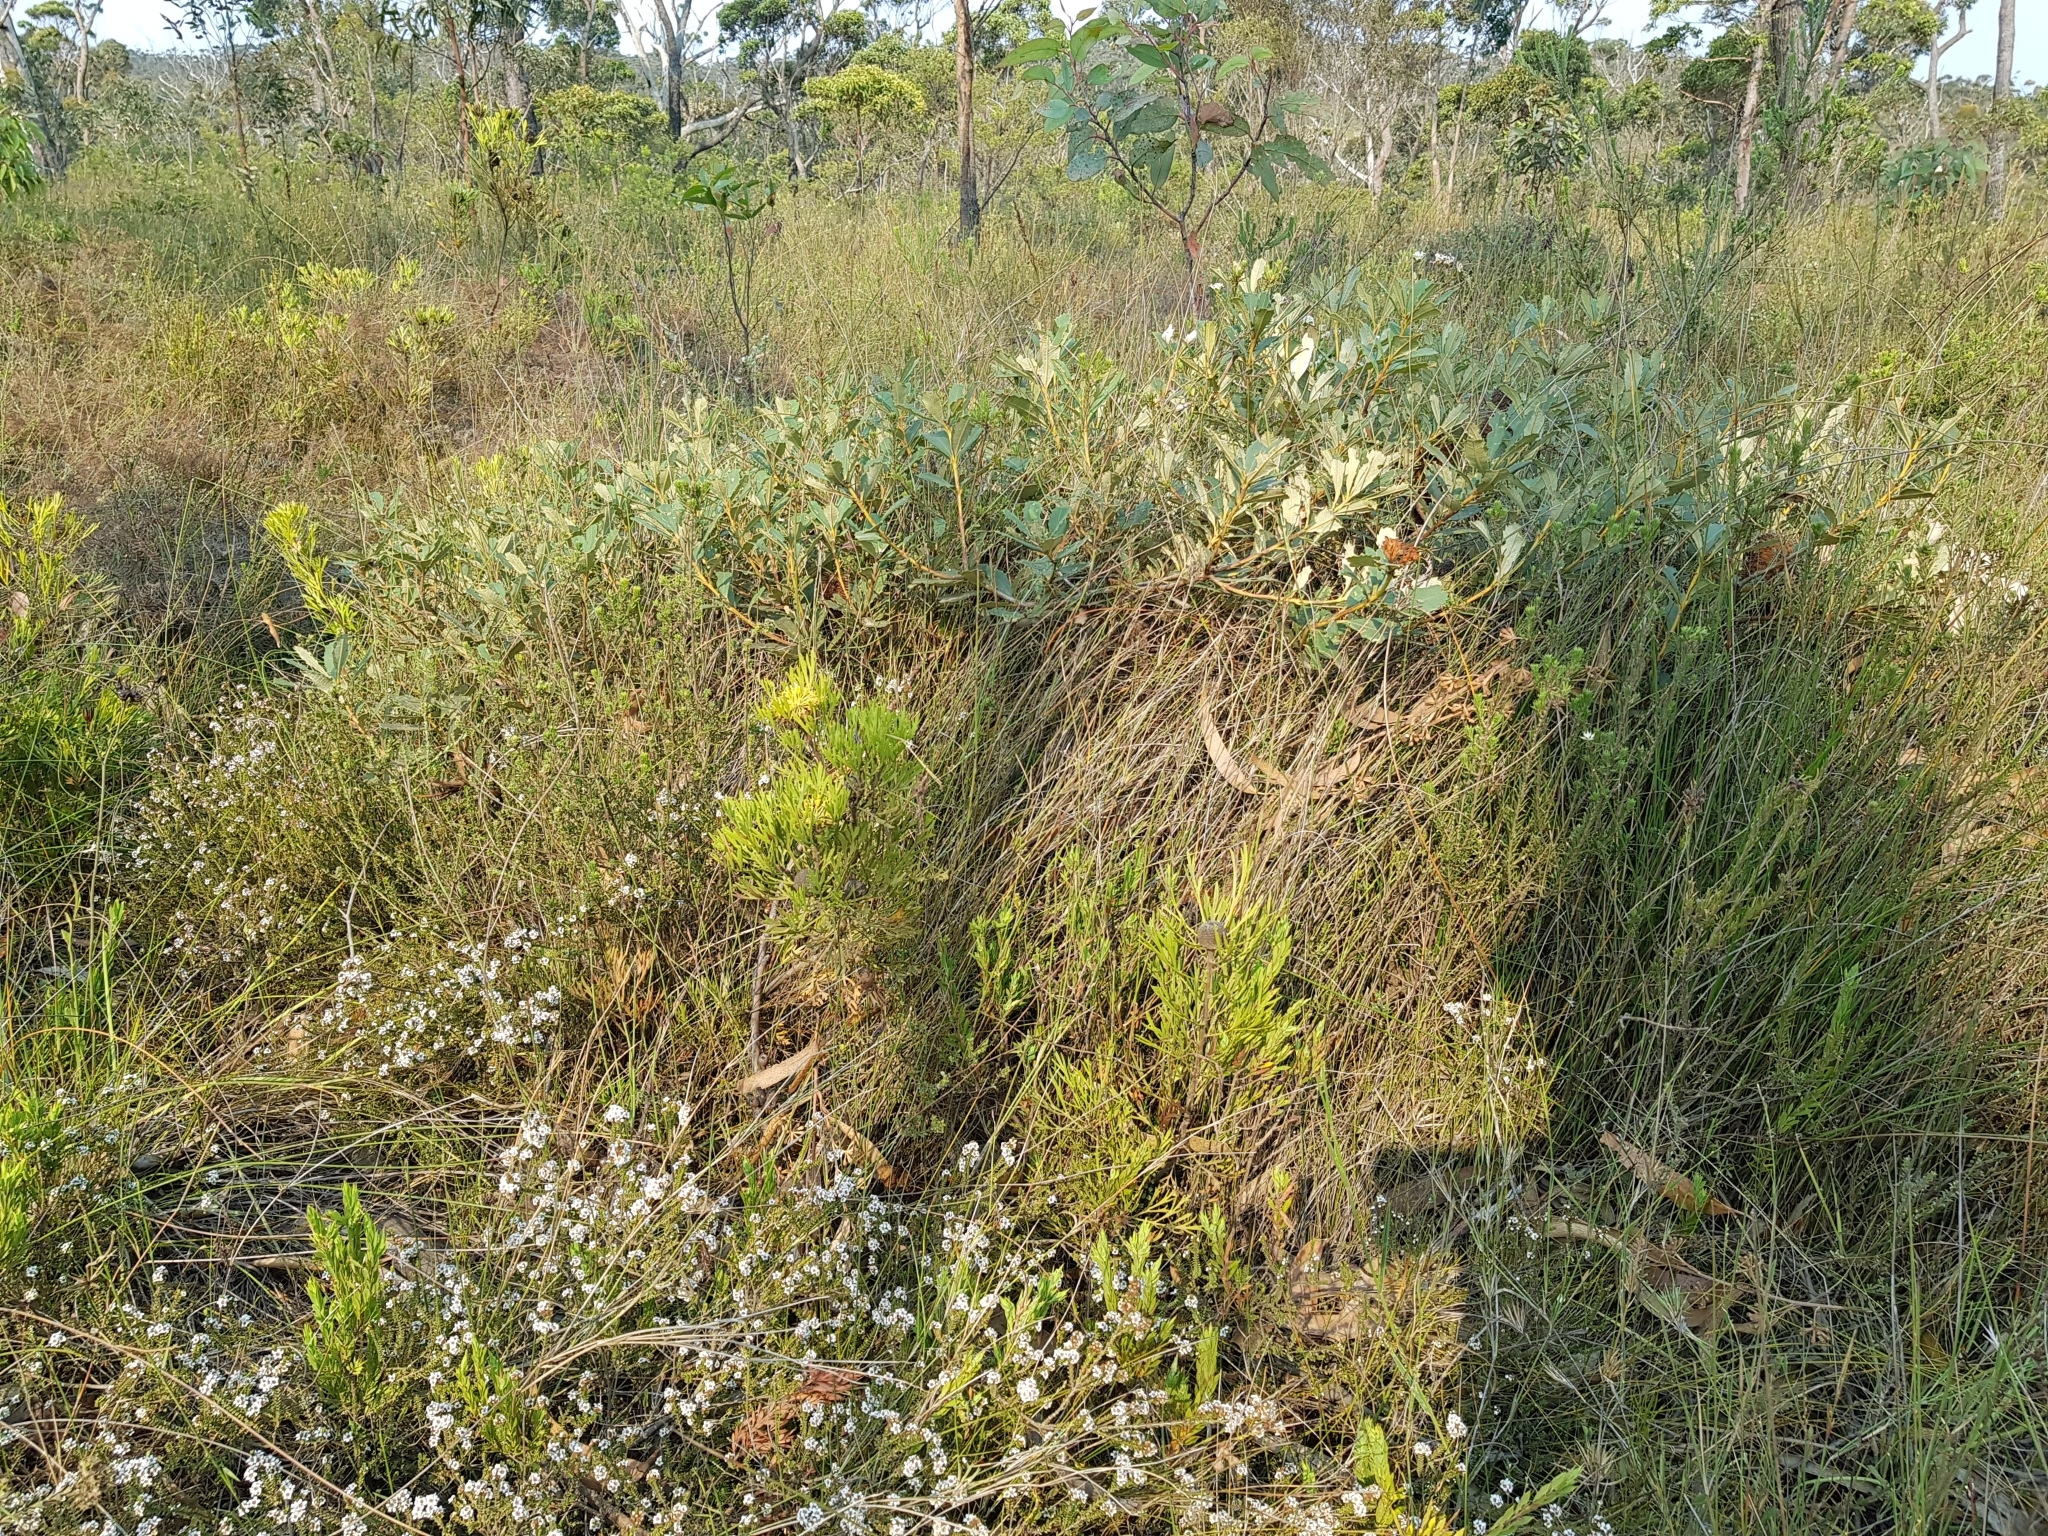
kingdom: Plantae
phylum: Tracheophyta
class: Magnoliopsida
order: Proteales
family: Proteaceae
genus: Isopogon
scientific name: Isopogon anemonifolius
